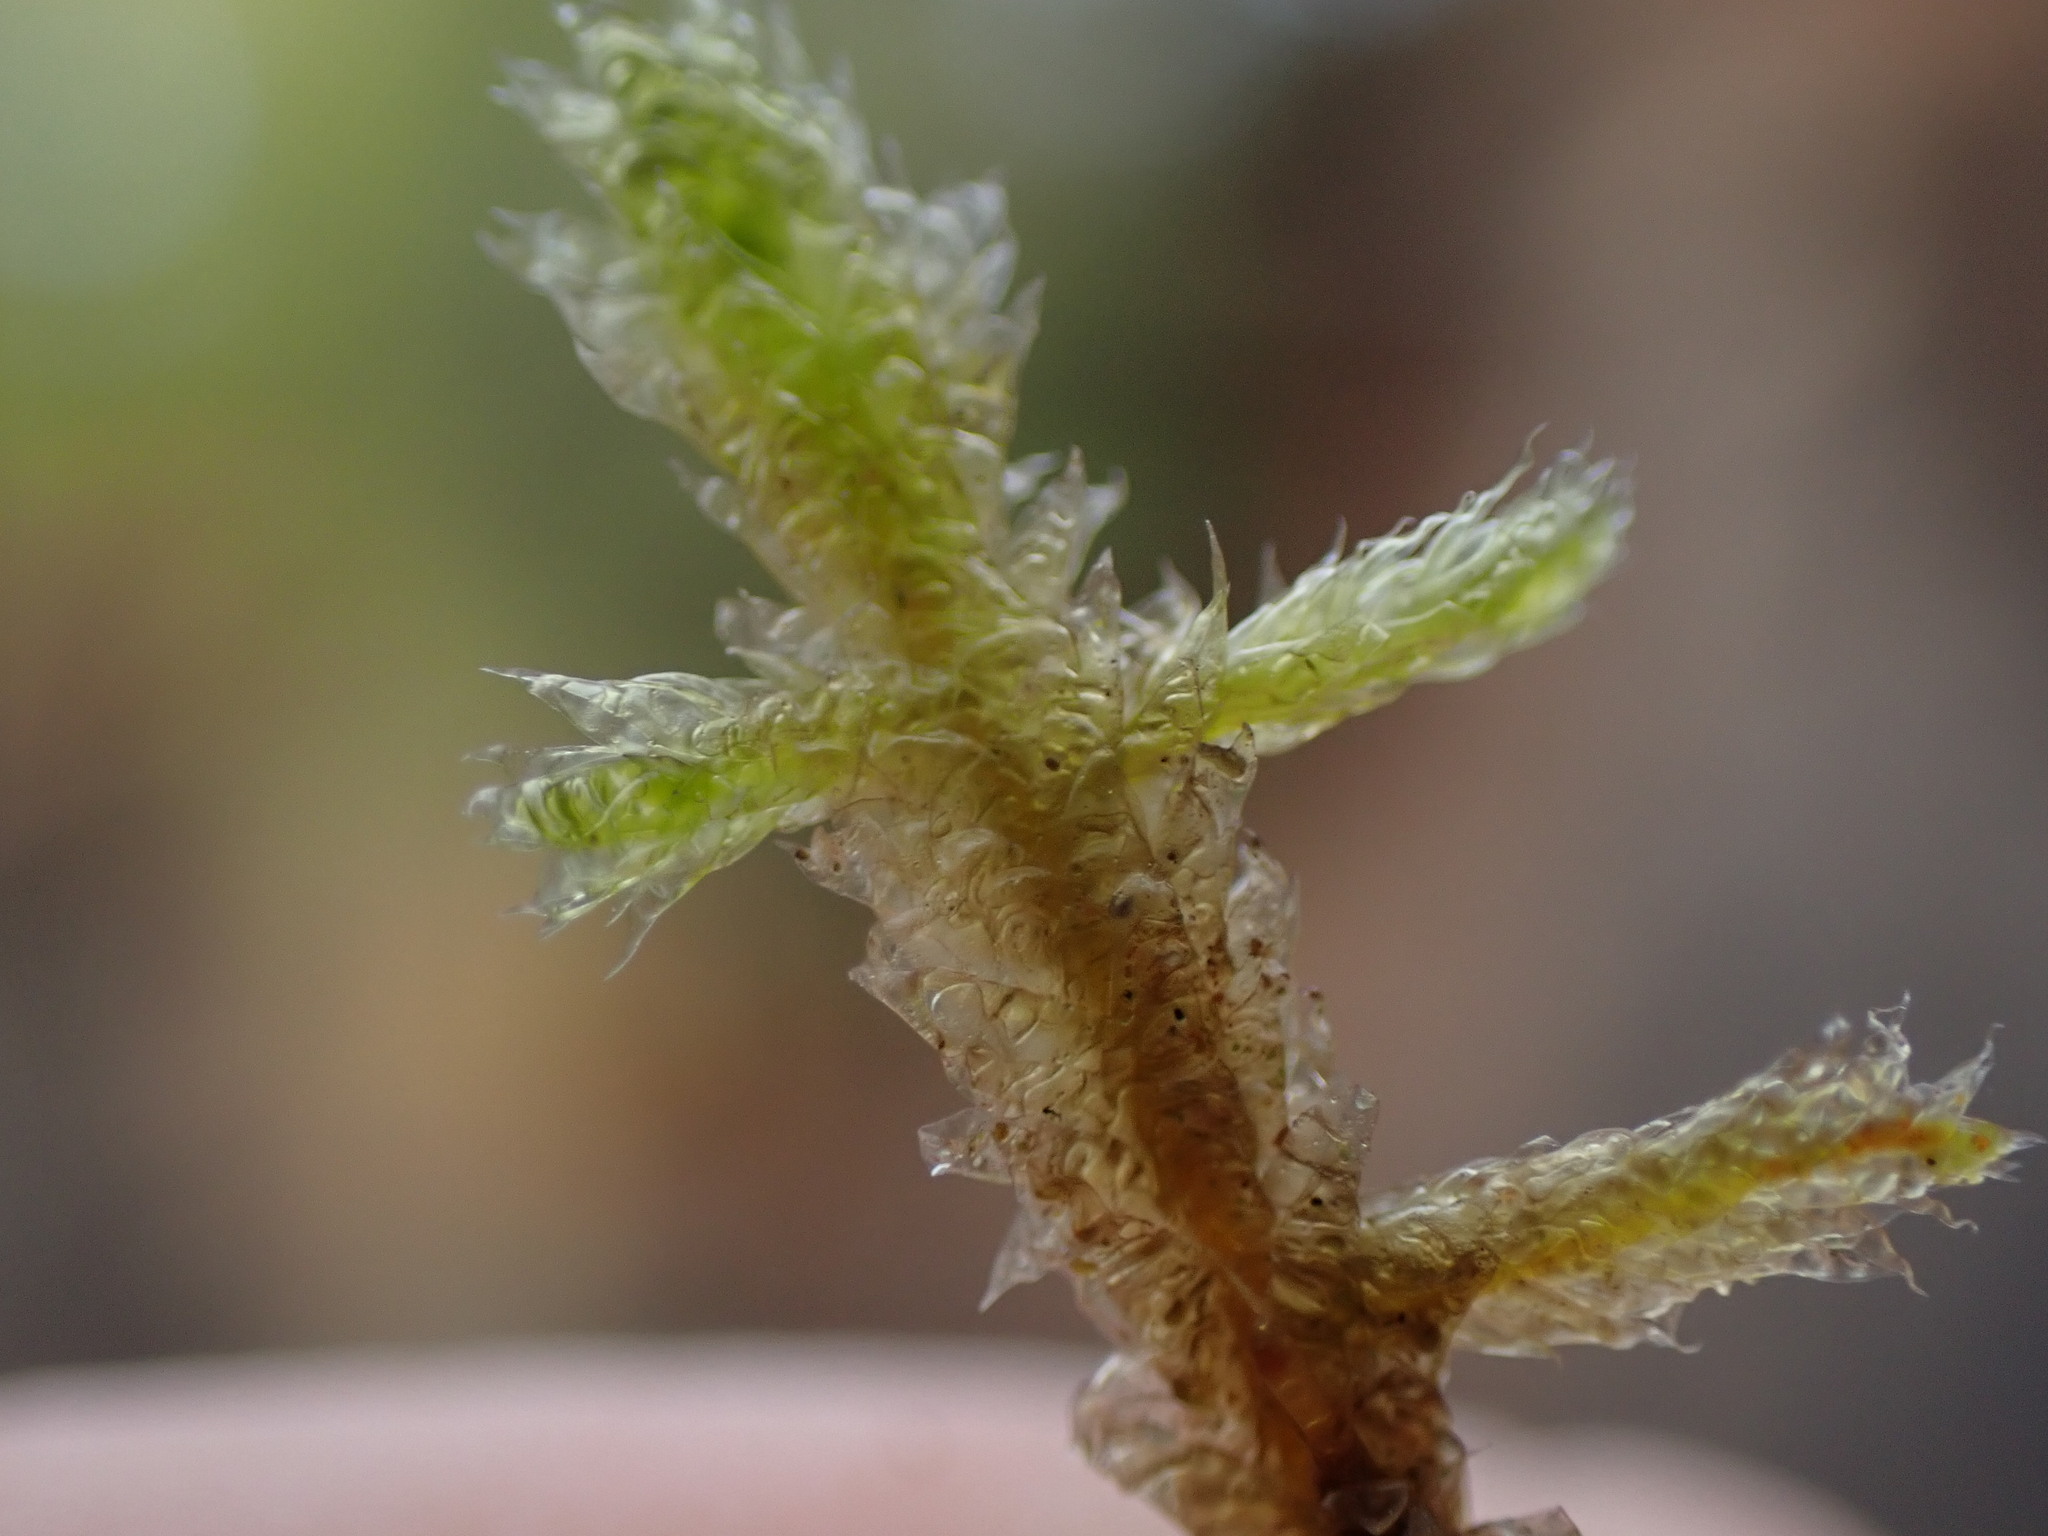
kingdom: Plantae
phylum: Bryophyta
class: Bryopsida
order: Hypnales
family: Neckeraceae
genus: Neckera
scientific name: Neckera douglasii
